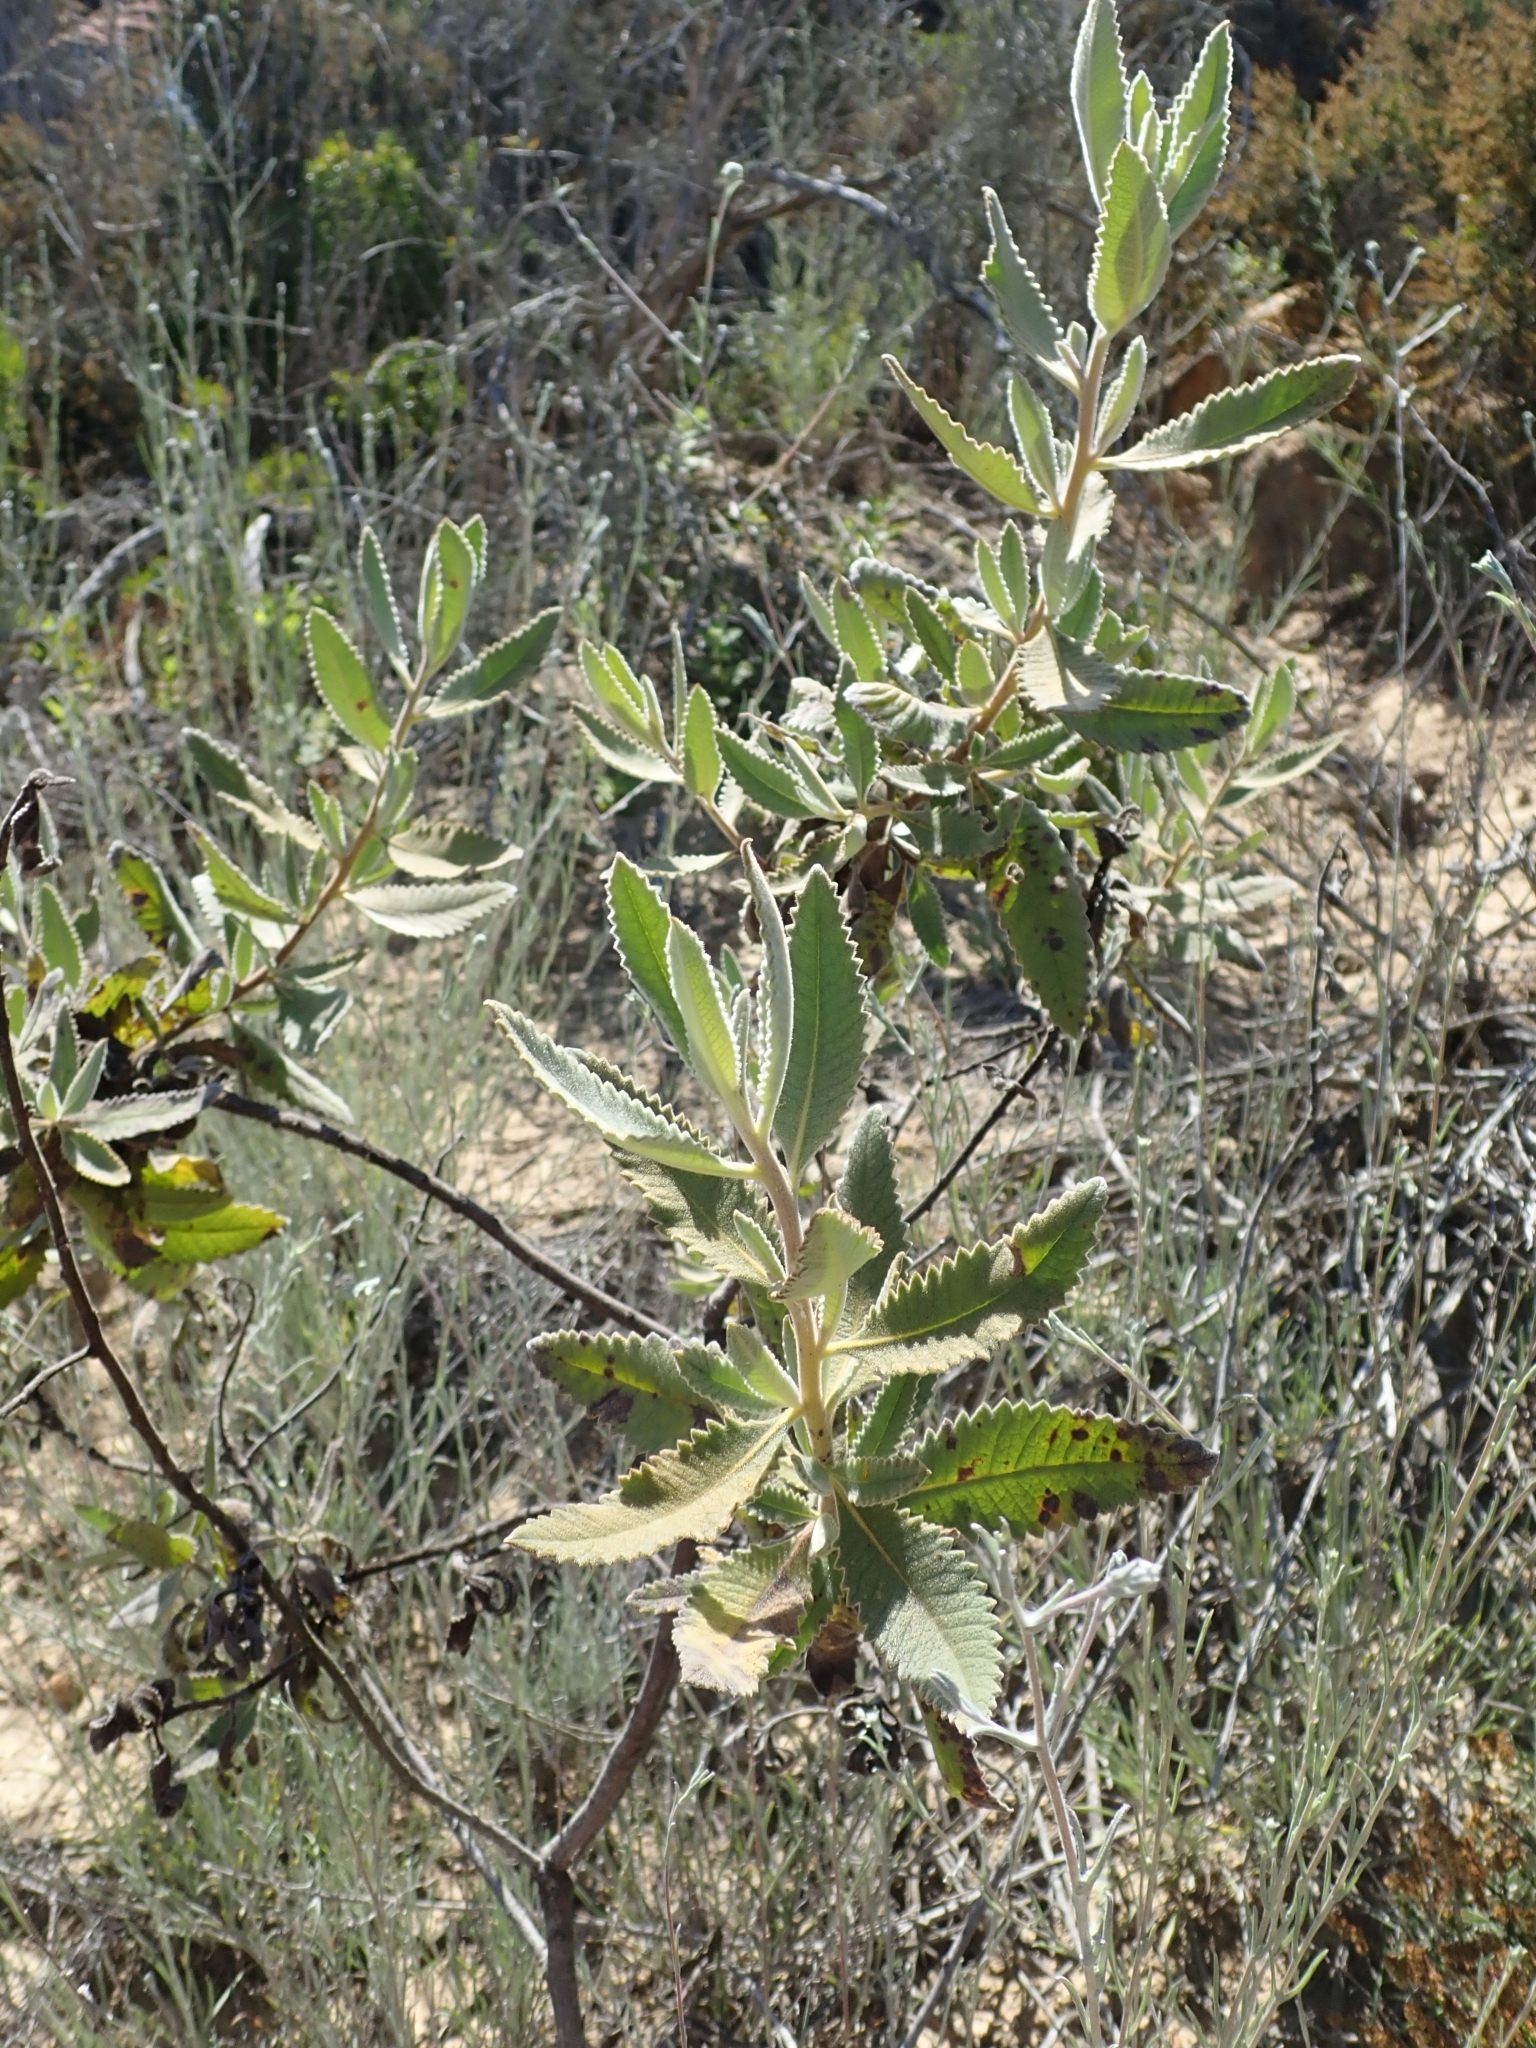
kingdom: Plantae
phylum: Tracheophyta
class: Magnoliopsida
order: Boraginales
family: Namaceae
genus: Eriodictyon
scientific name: Eriodictyon crassifolium
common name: Thick-leaf yerba-santa
